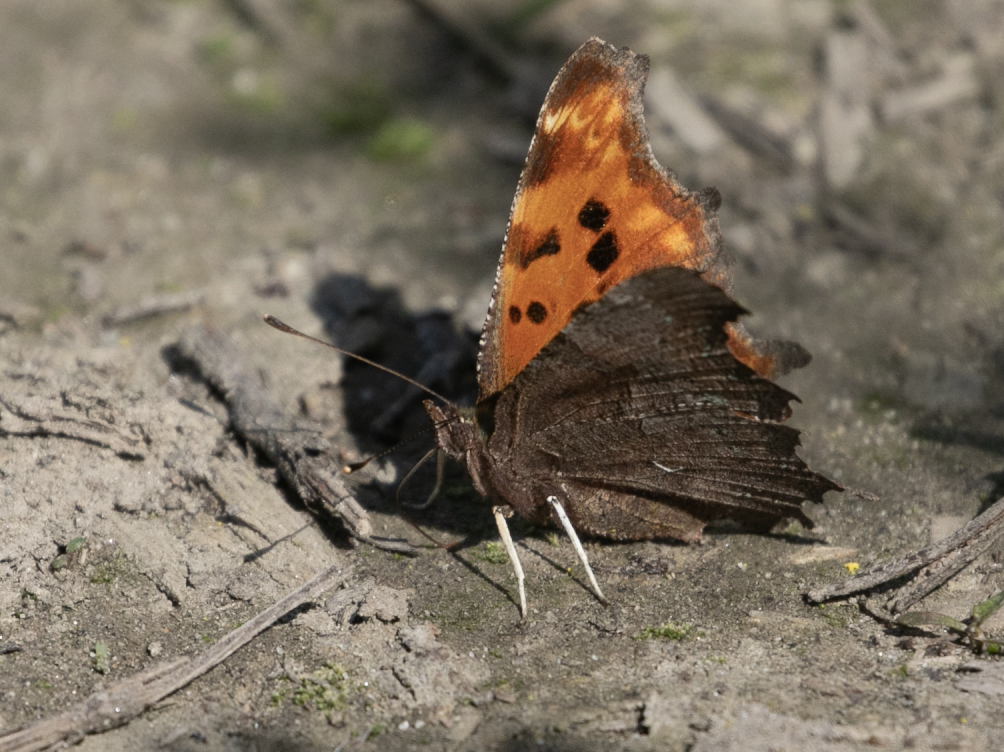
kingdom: Animalia
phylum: Arthropoda
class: Insecta
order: Lepidoptera
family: Nymphalidae
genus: Polygonia
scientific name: Polygonia c-album
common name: Comma
